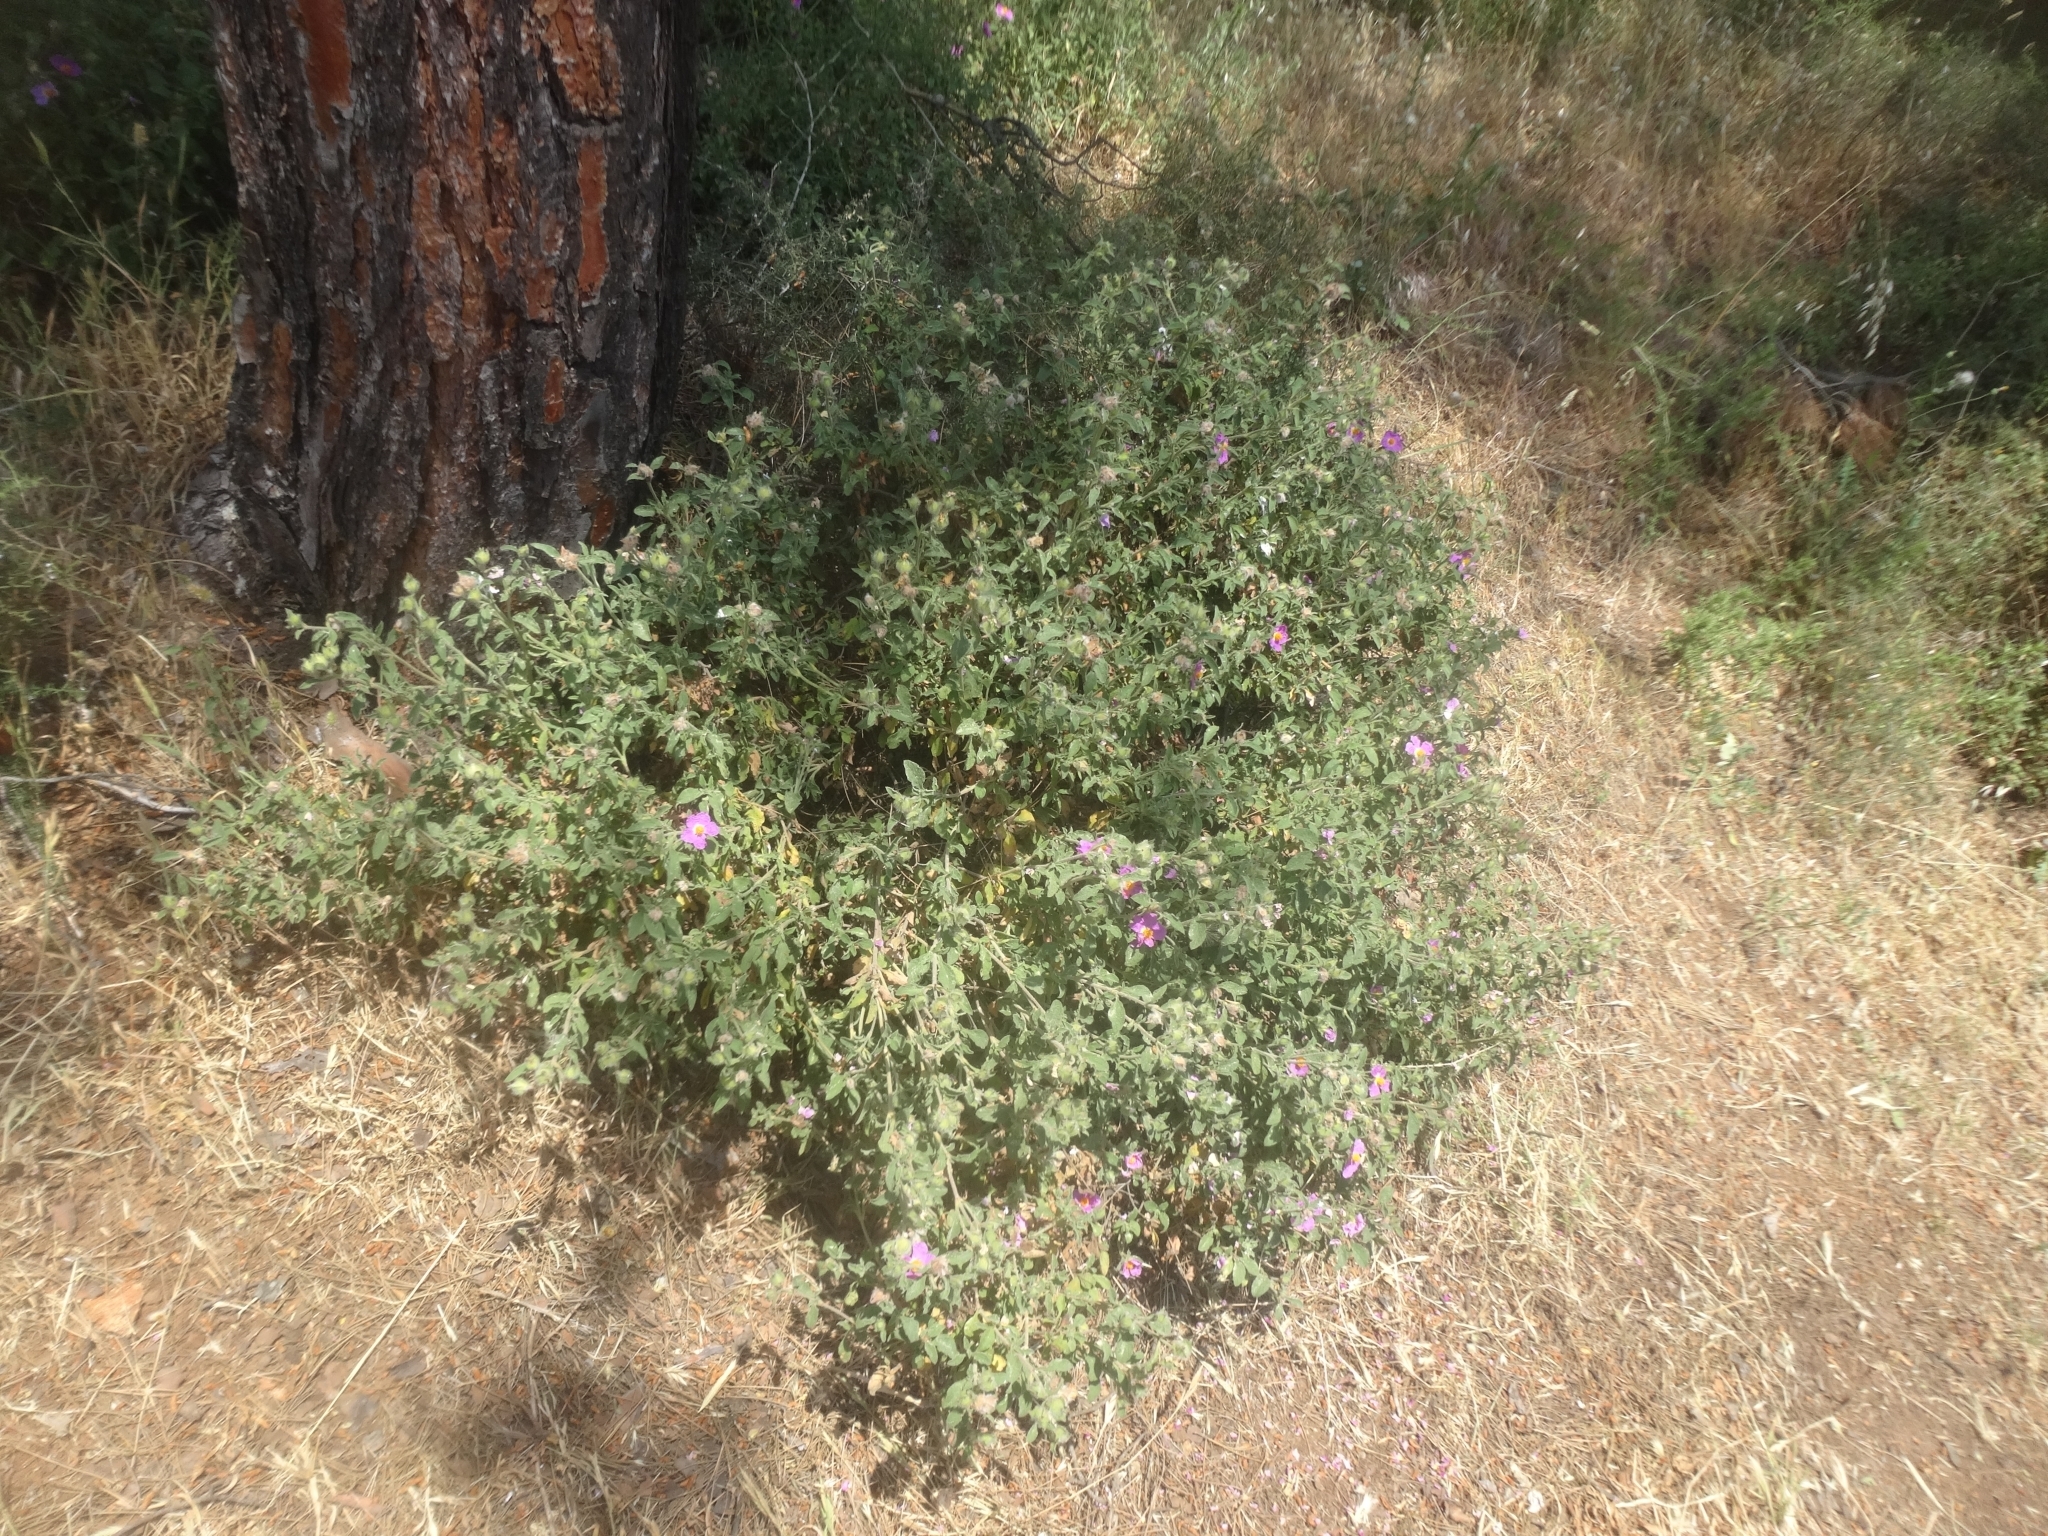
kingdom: Plantae
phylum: Tracheophyta
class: Magnoliopsida
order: Malvales
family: Cistaceae
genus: Cistus
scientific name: Cistus creticus
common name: Cretan rockrose
